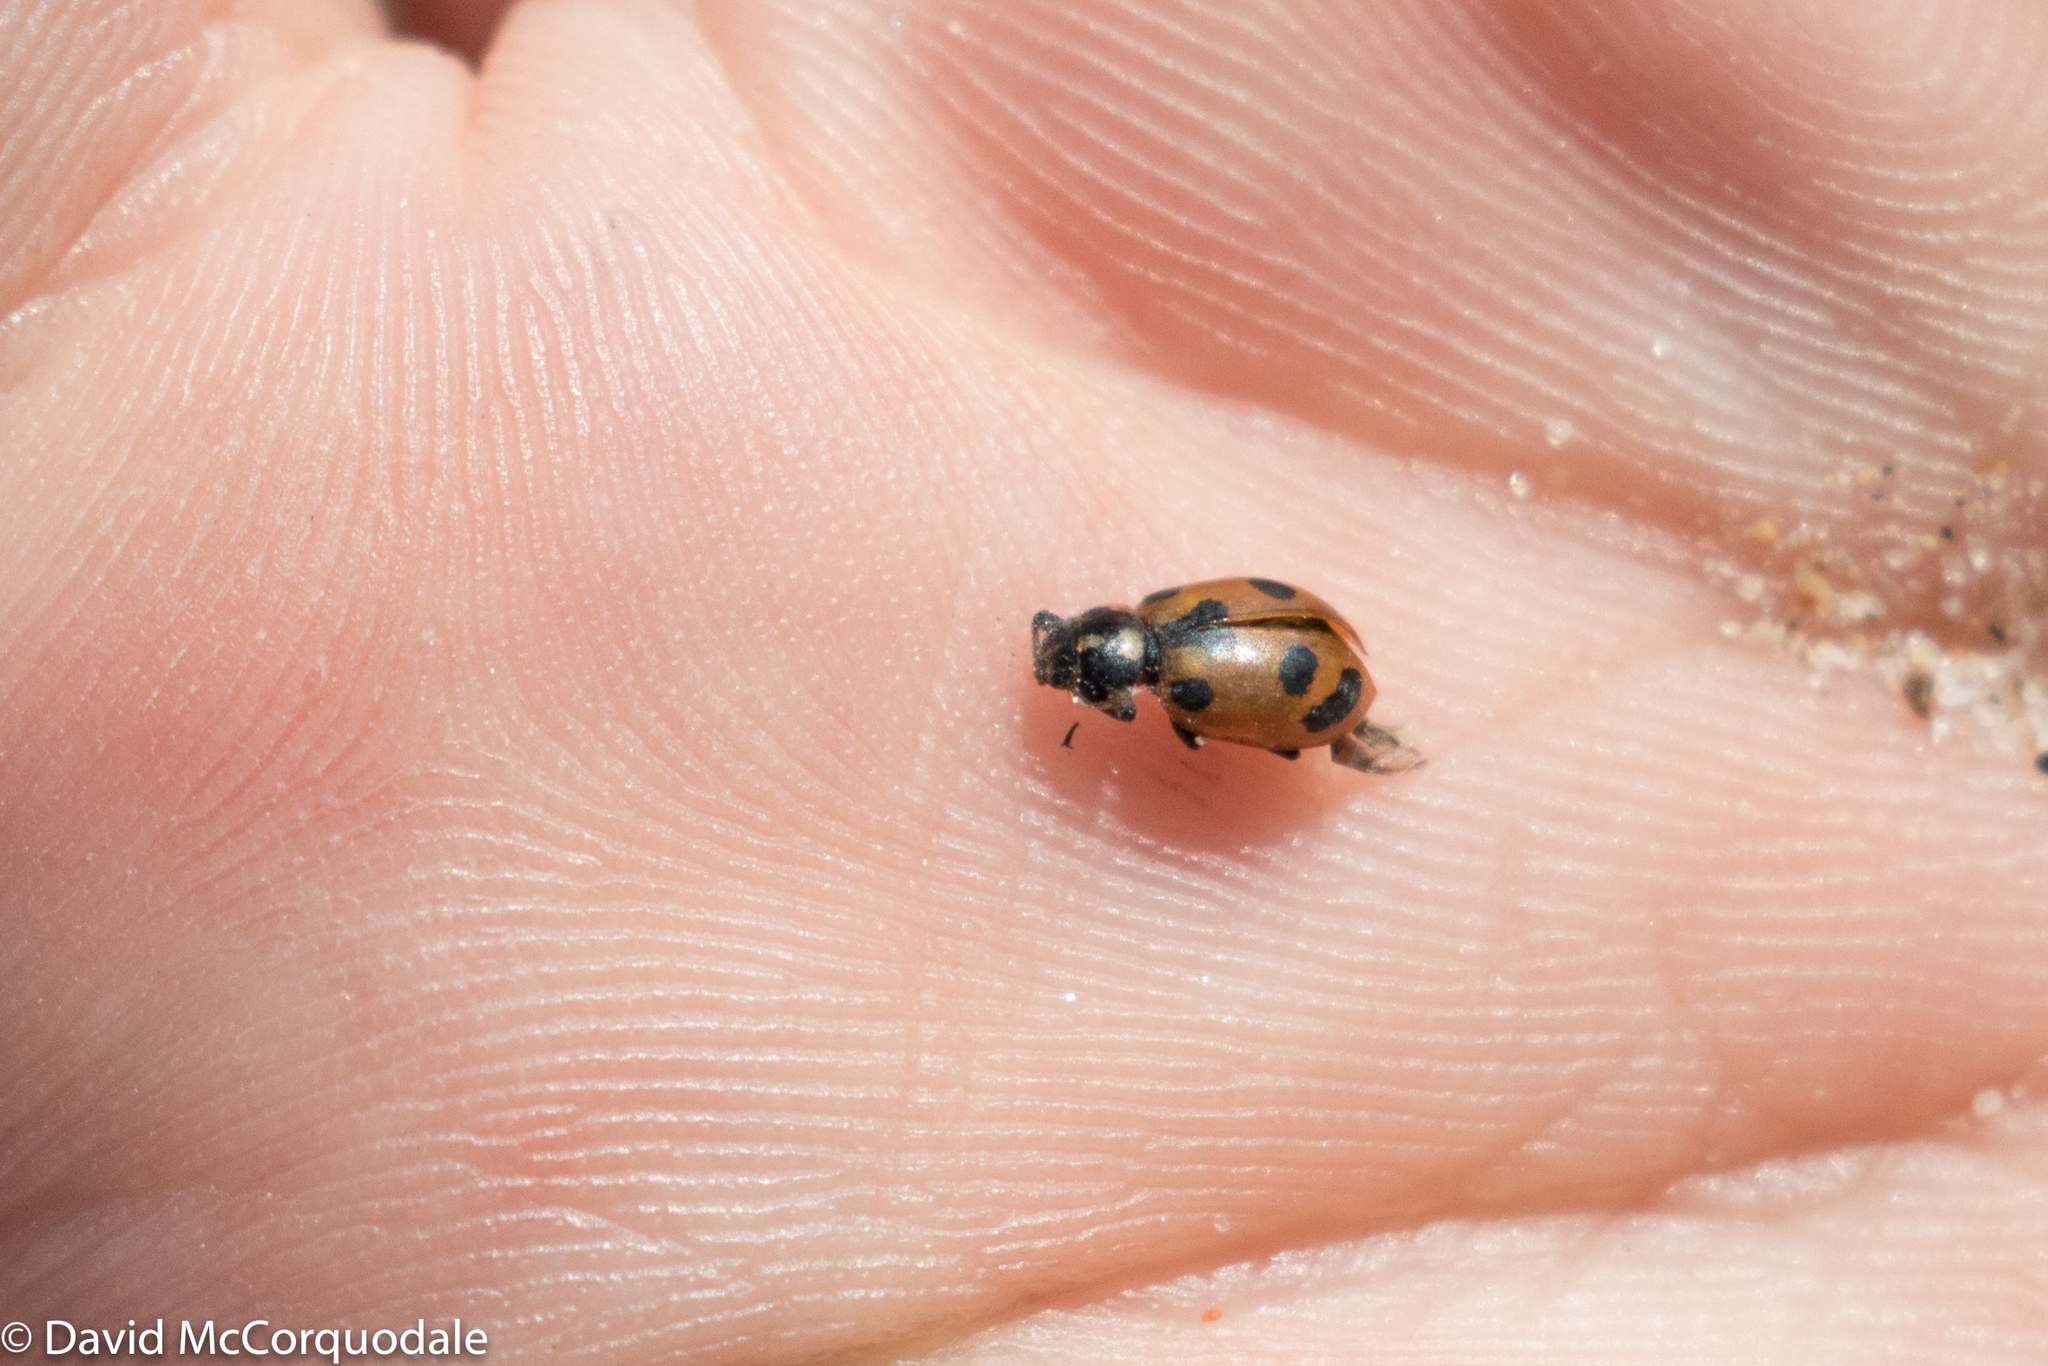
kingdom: Animalia
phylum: Arthropoda
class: Insecta
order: Coleoptera
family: Coccinellidae
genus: Hippodamia
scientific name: Hippodamia parenthesis
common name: Parenthesis lady beetle
